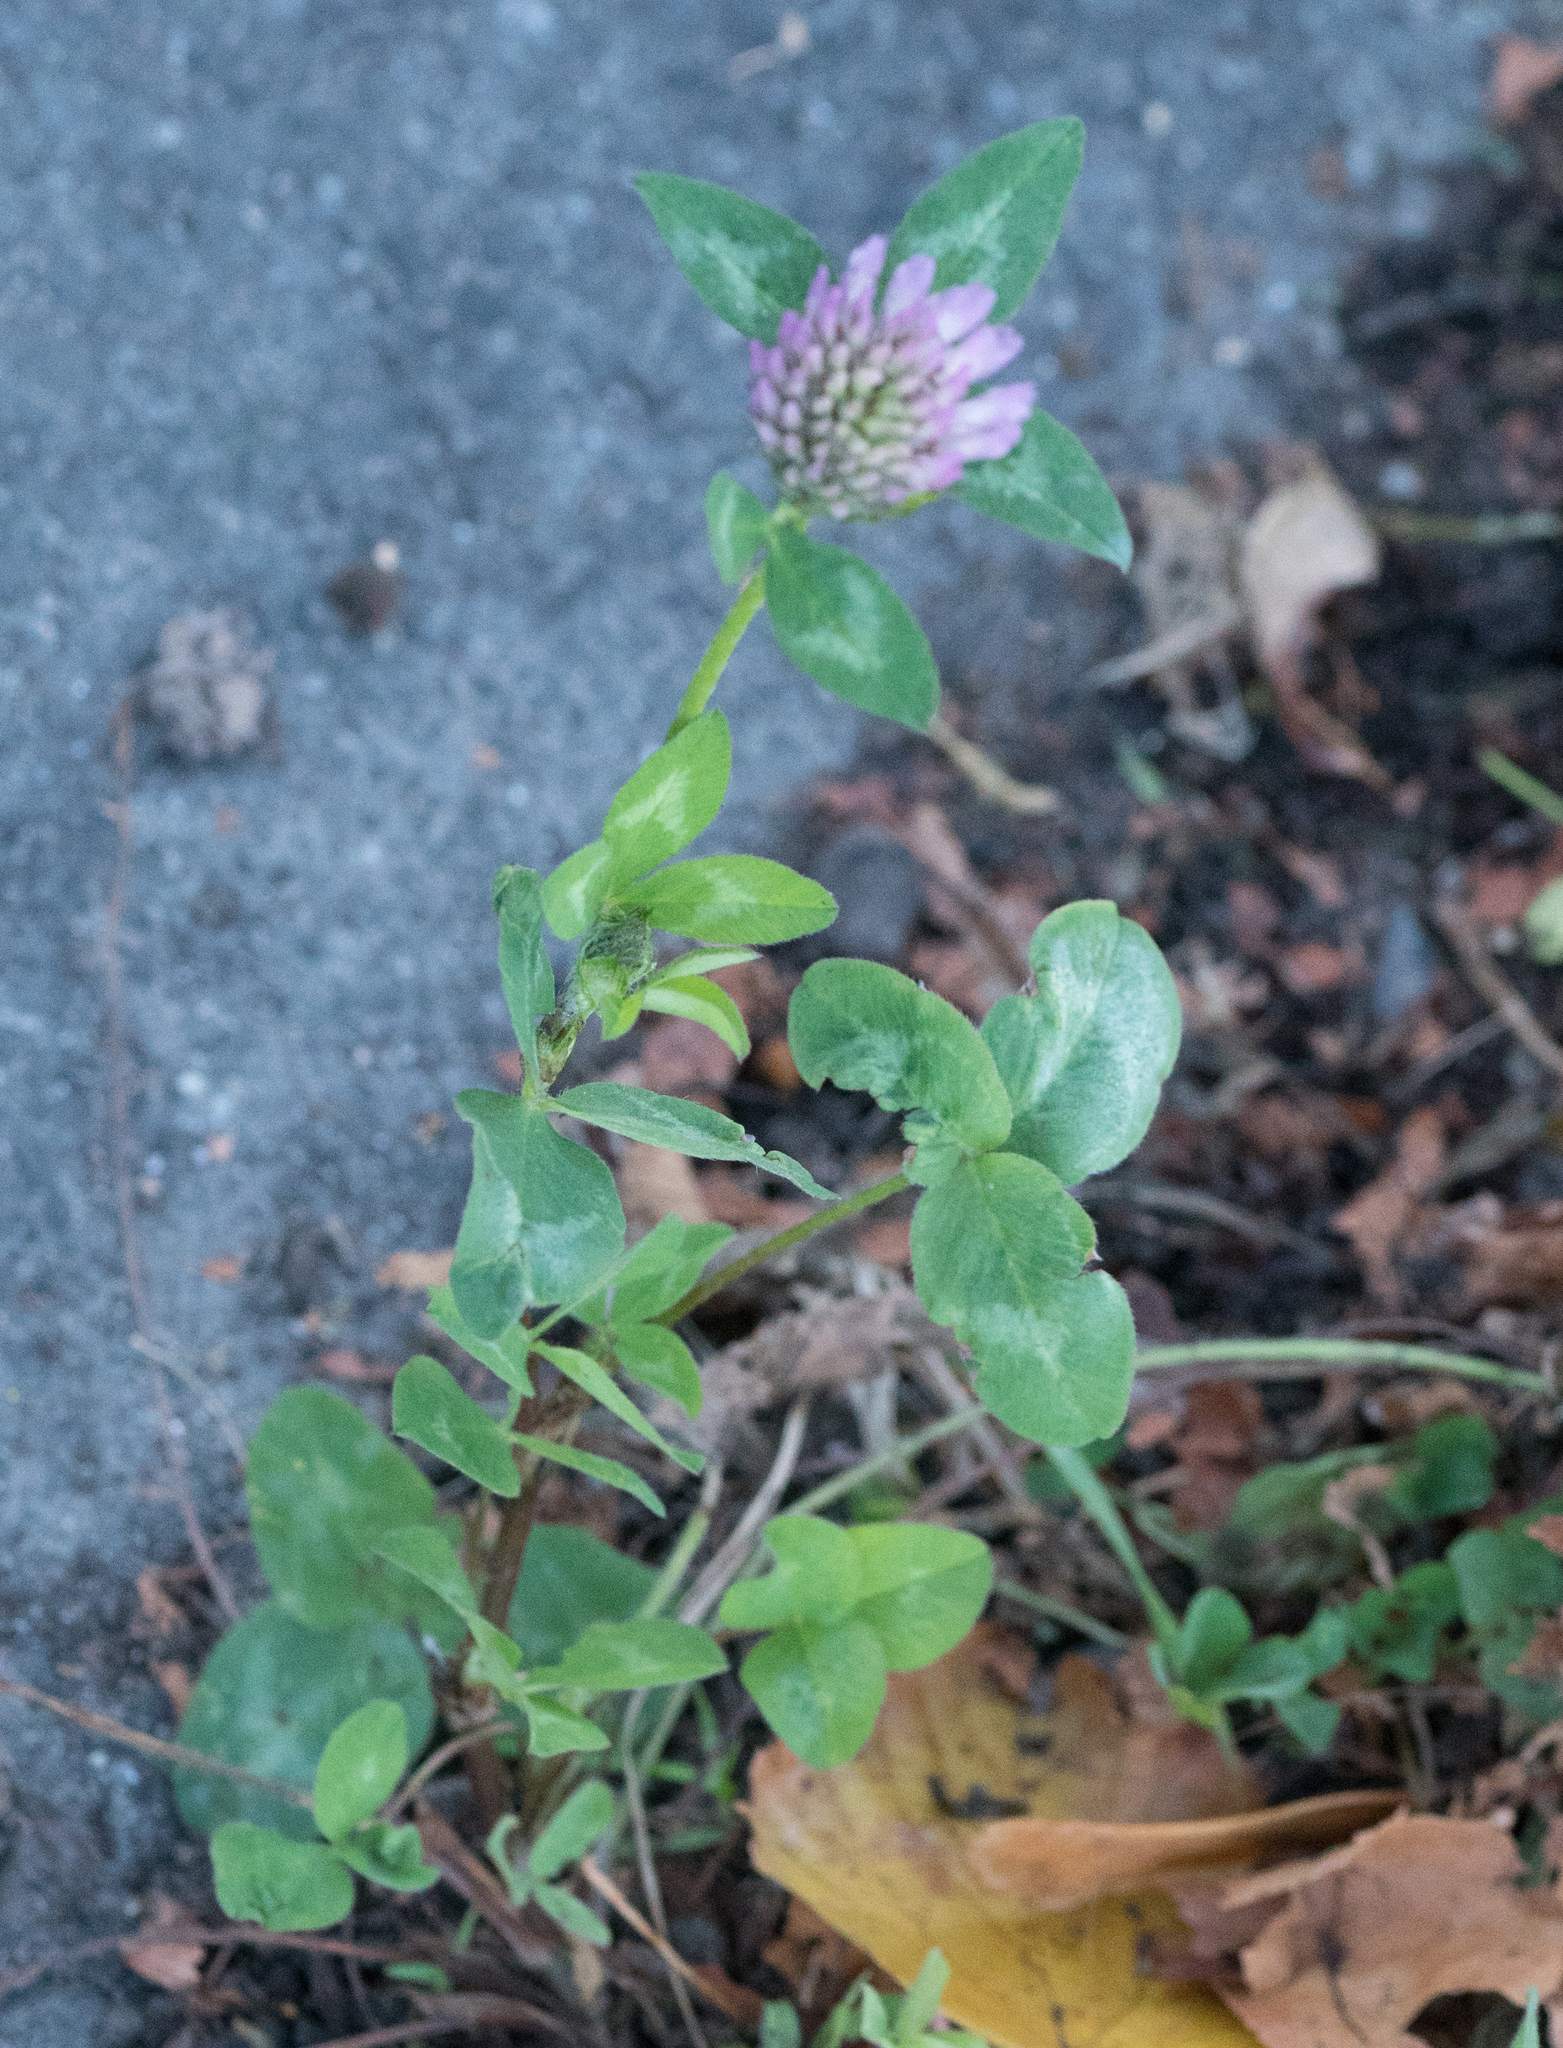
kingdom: Plantae
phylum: Tracheophyta
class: Magnoliopsida
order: Fabales
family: Fabaceae
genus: Trifolium
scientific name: Trifolium pratense
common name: Red clover
